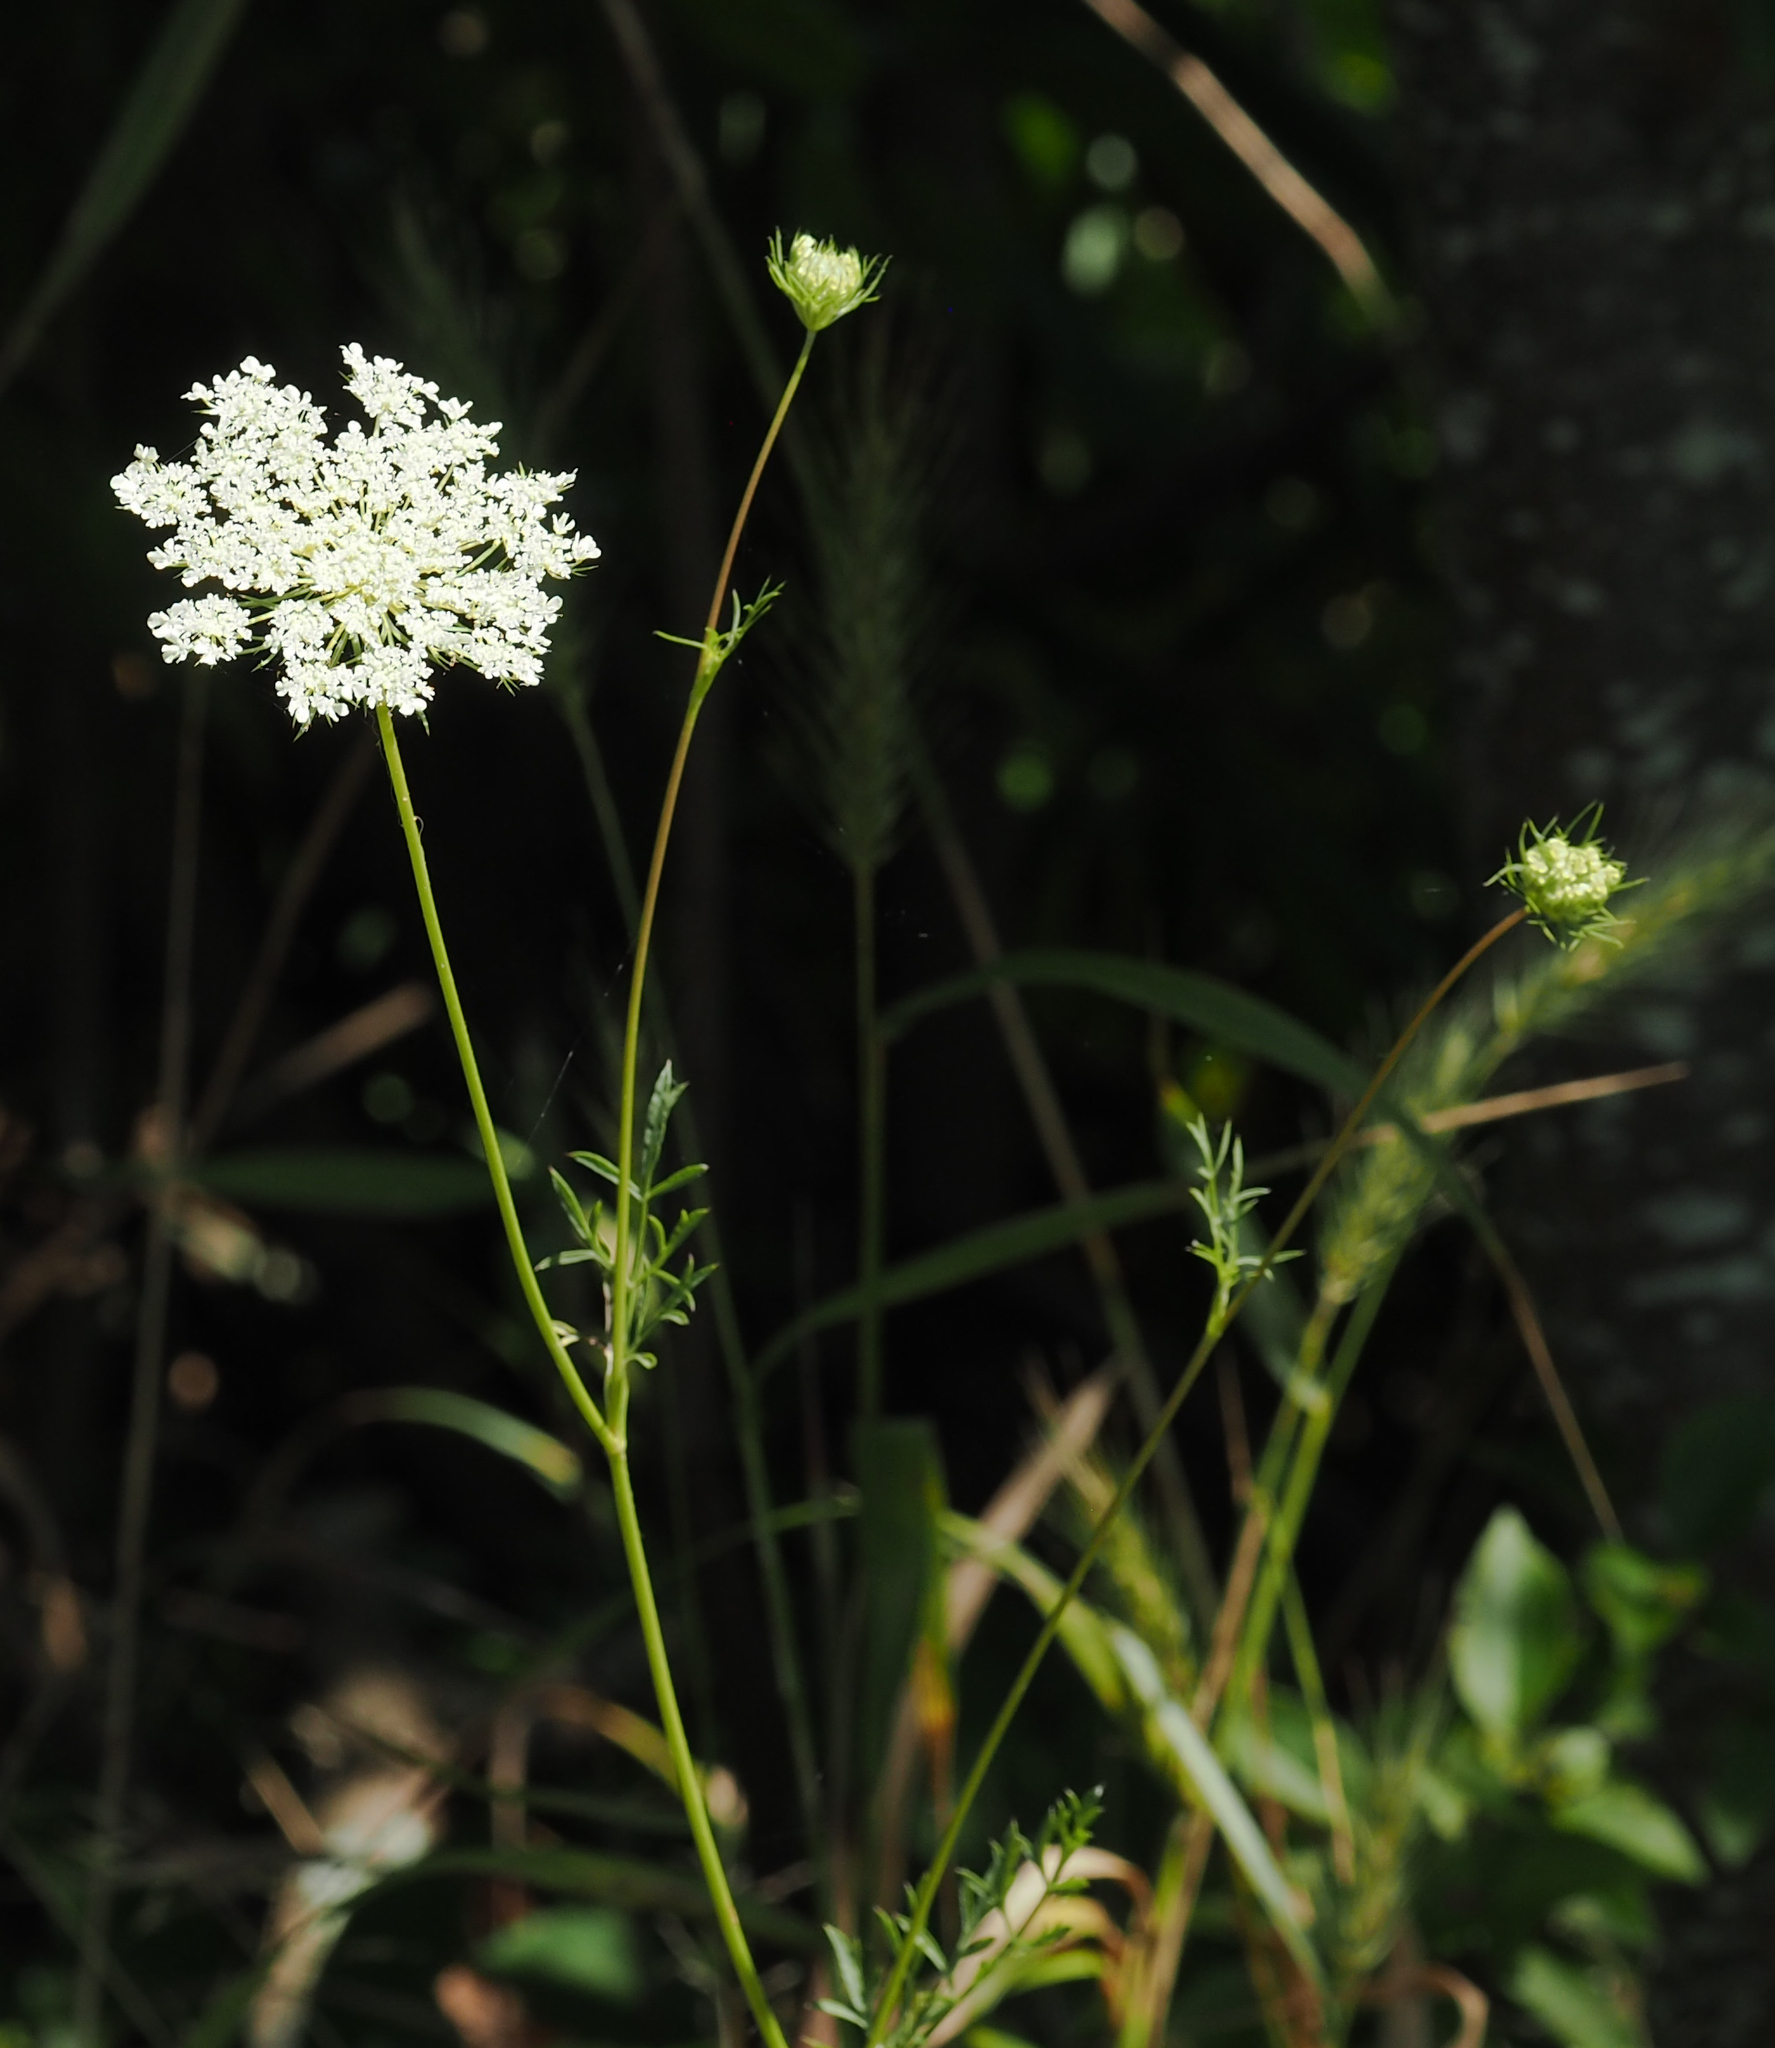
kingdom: Plantae
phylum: Tracheophyta
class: Magnoliopsida
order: Apiales
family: Apiaceae
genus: Daucus
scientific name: Daucus carota
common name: Wild carrot
